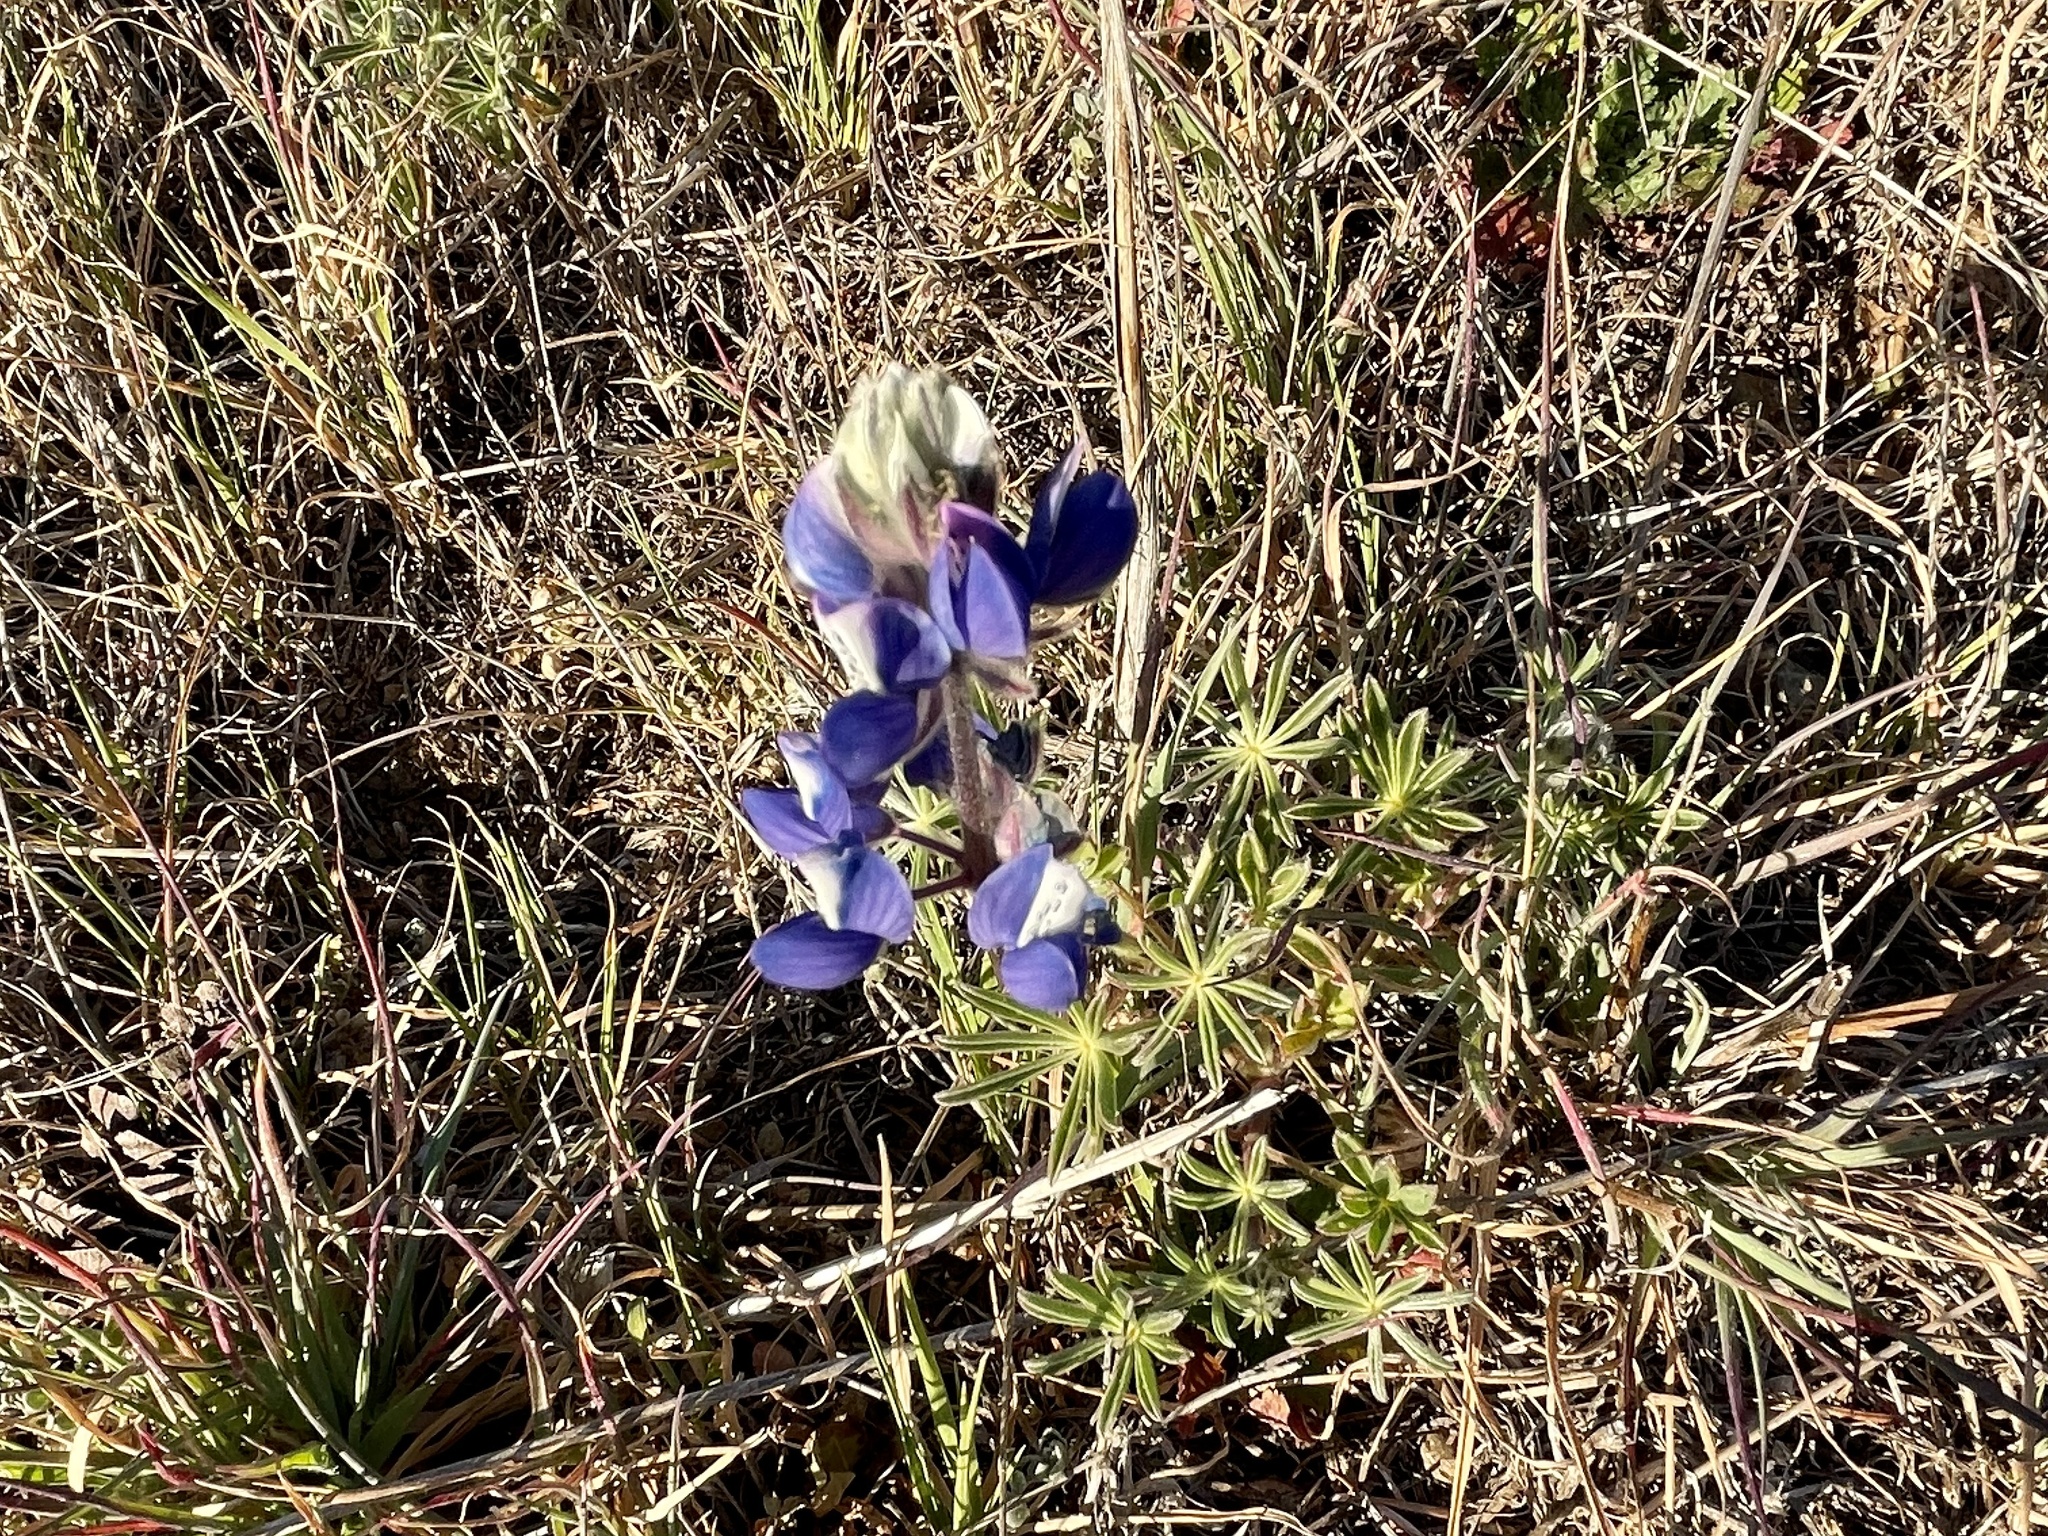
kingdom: Plantae
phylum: Tracheophyta
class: Magnoliopsida
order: Fabales
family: Fabaceae
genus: Lupinus
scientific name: Lupinus nanus
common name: Orean blue lupin
